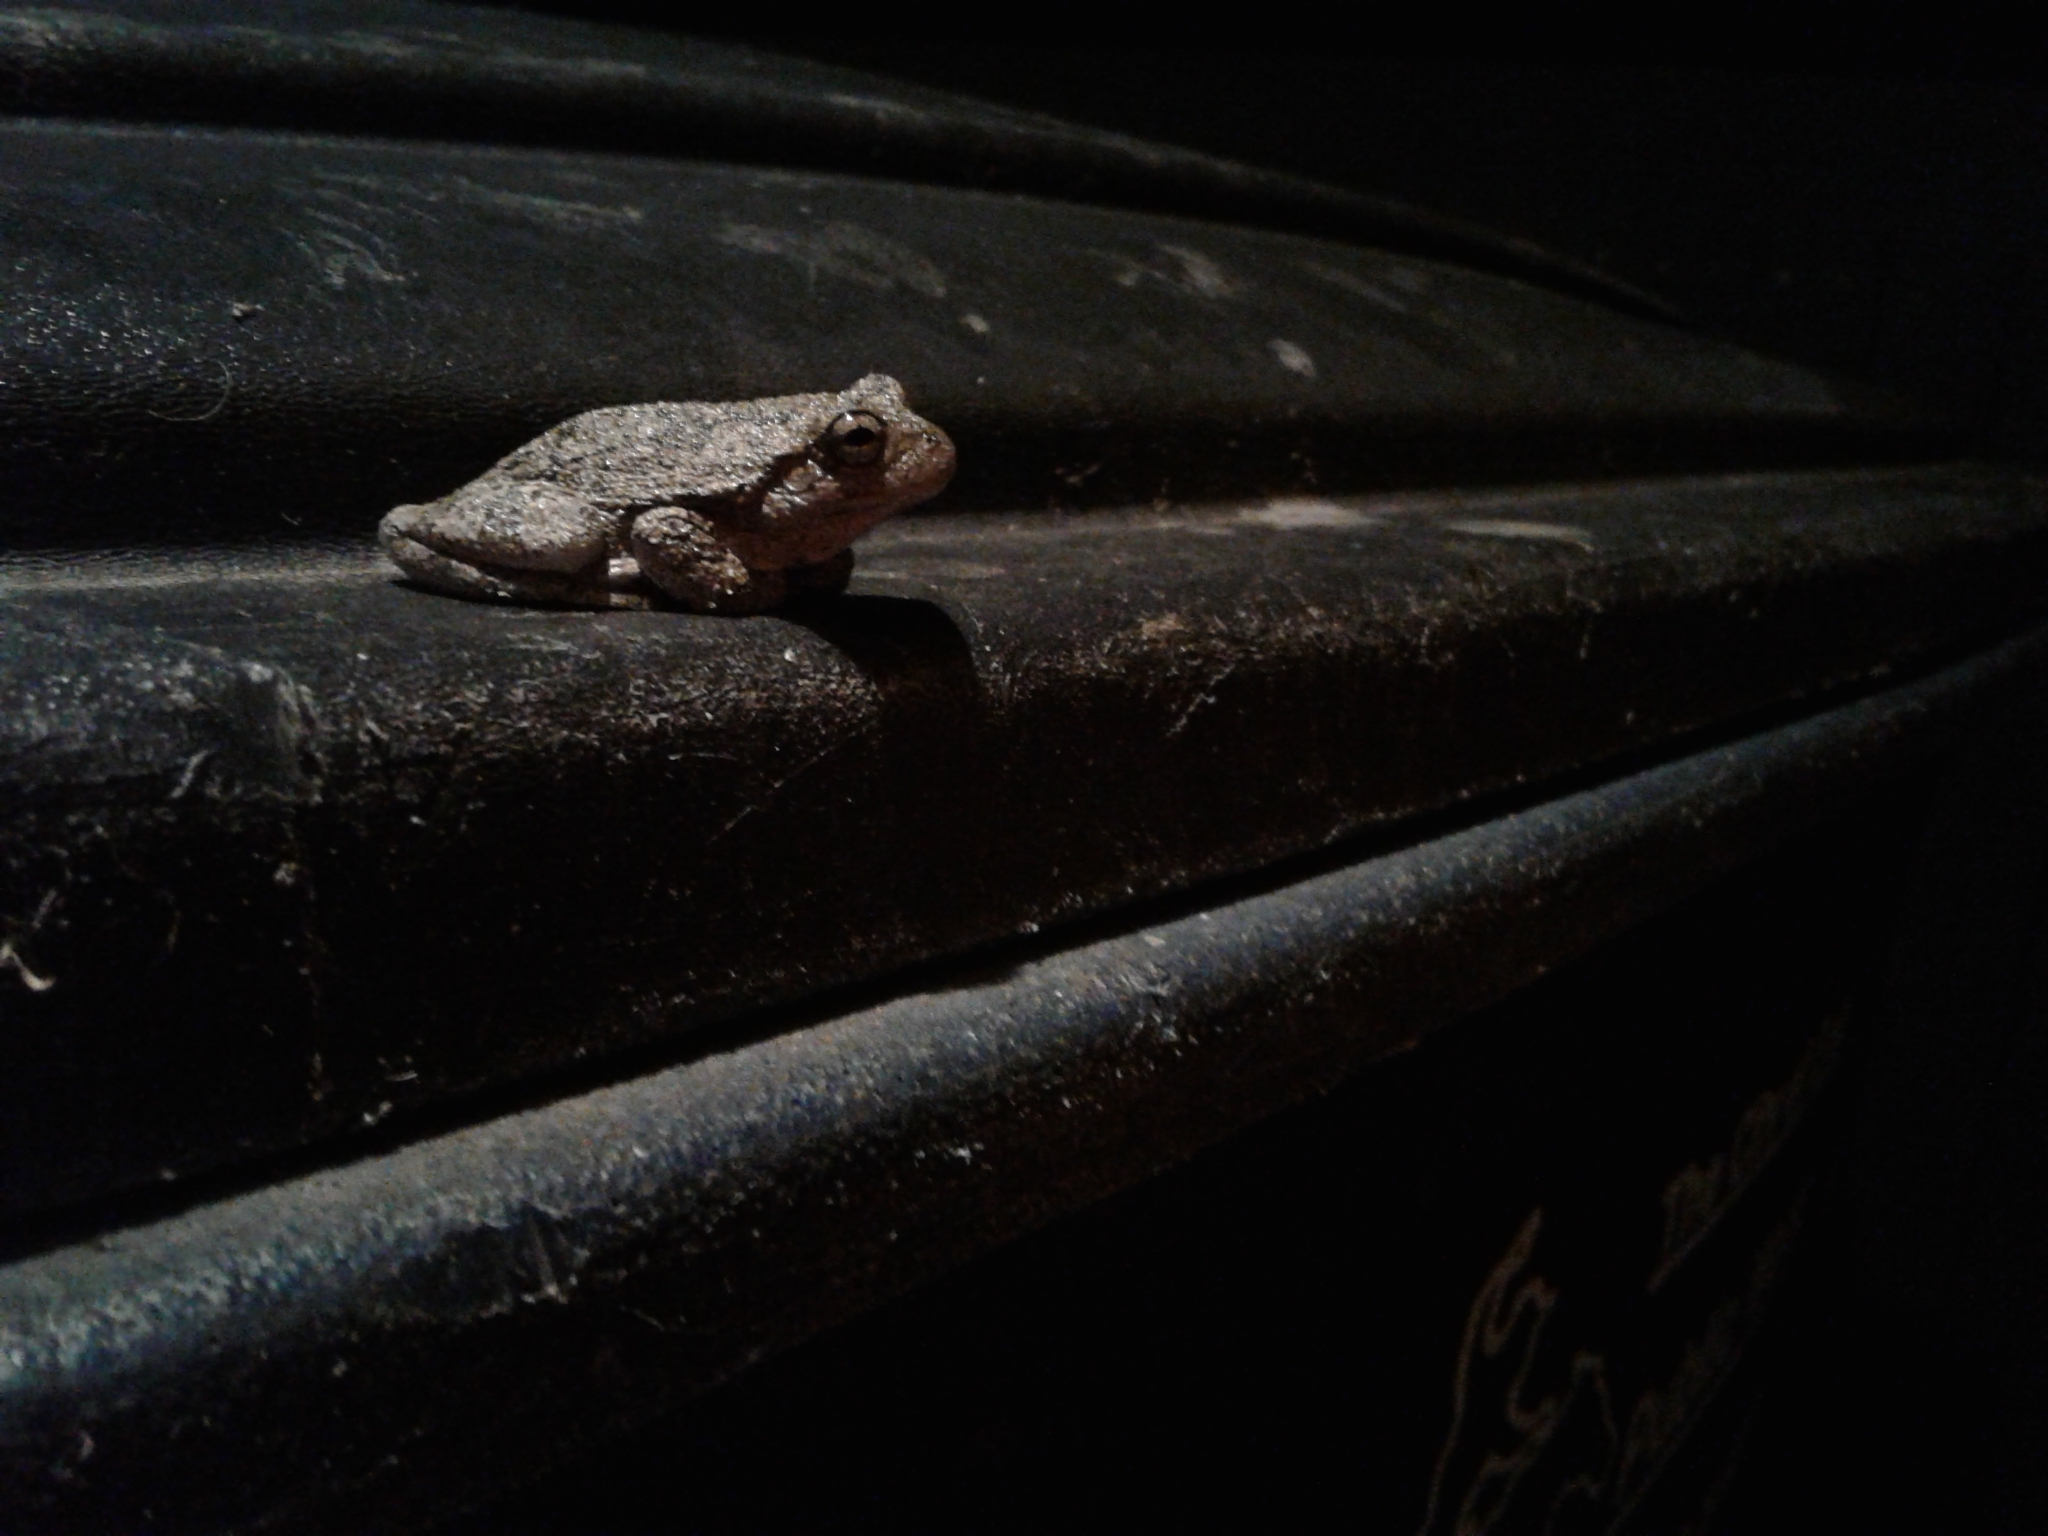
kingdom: Animalia
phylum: Chordata
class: Amphibia
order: Anura
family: Hylidae
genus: Hyla
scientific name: Hyla
